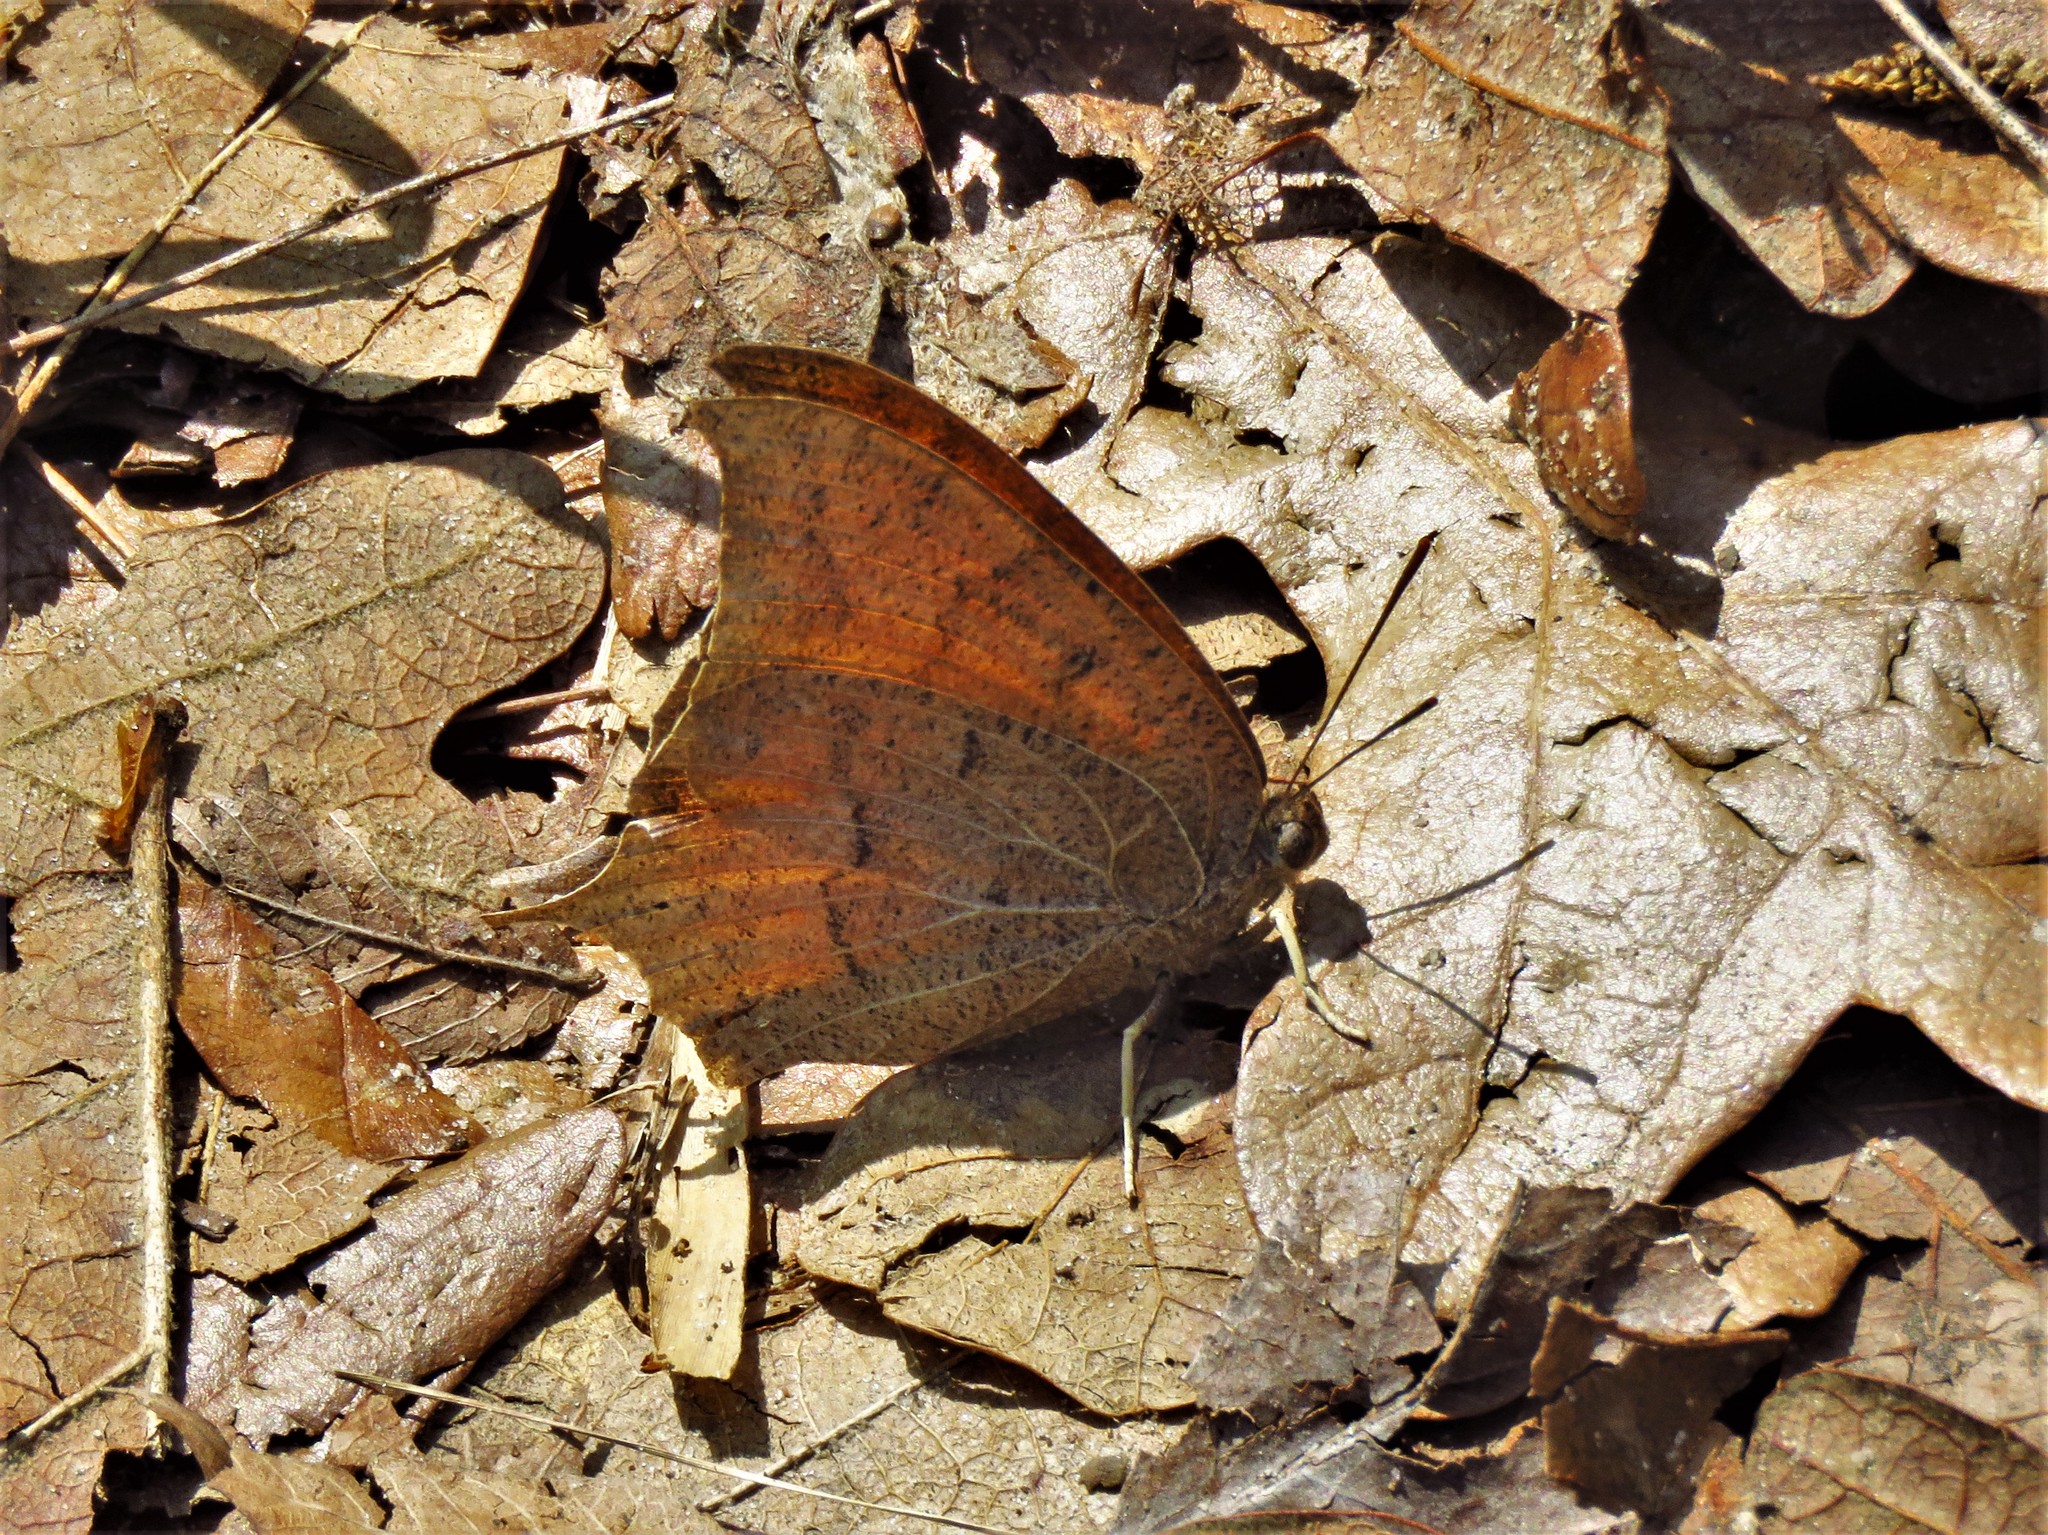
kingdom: Animalia
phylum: Arthropoda
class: Insecta
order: Lepidoptera
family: Nymphalidae
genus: Anaea
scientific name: Anaea andria
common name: Goatweed leafwing
